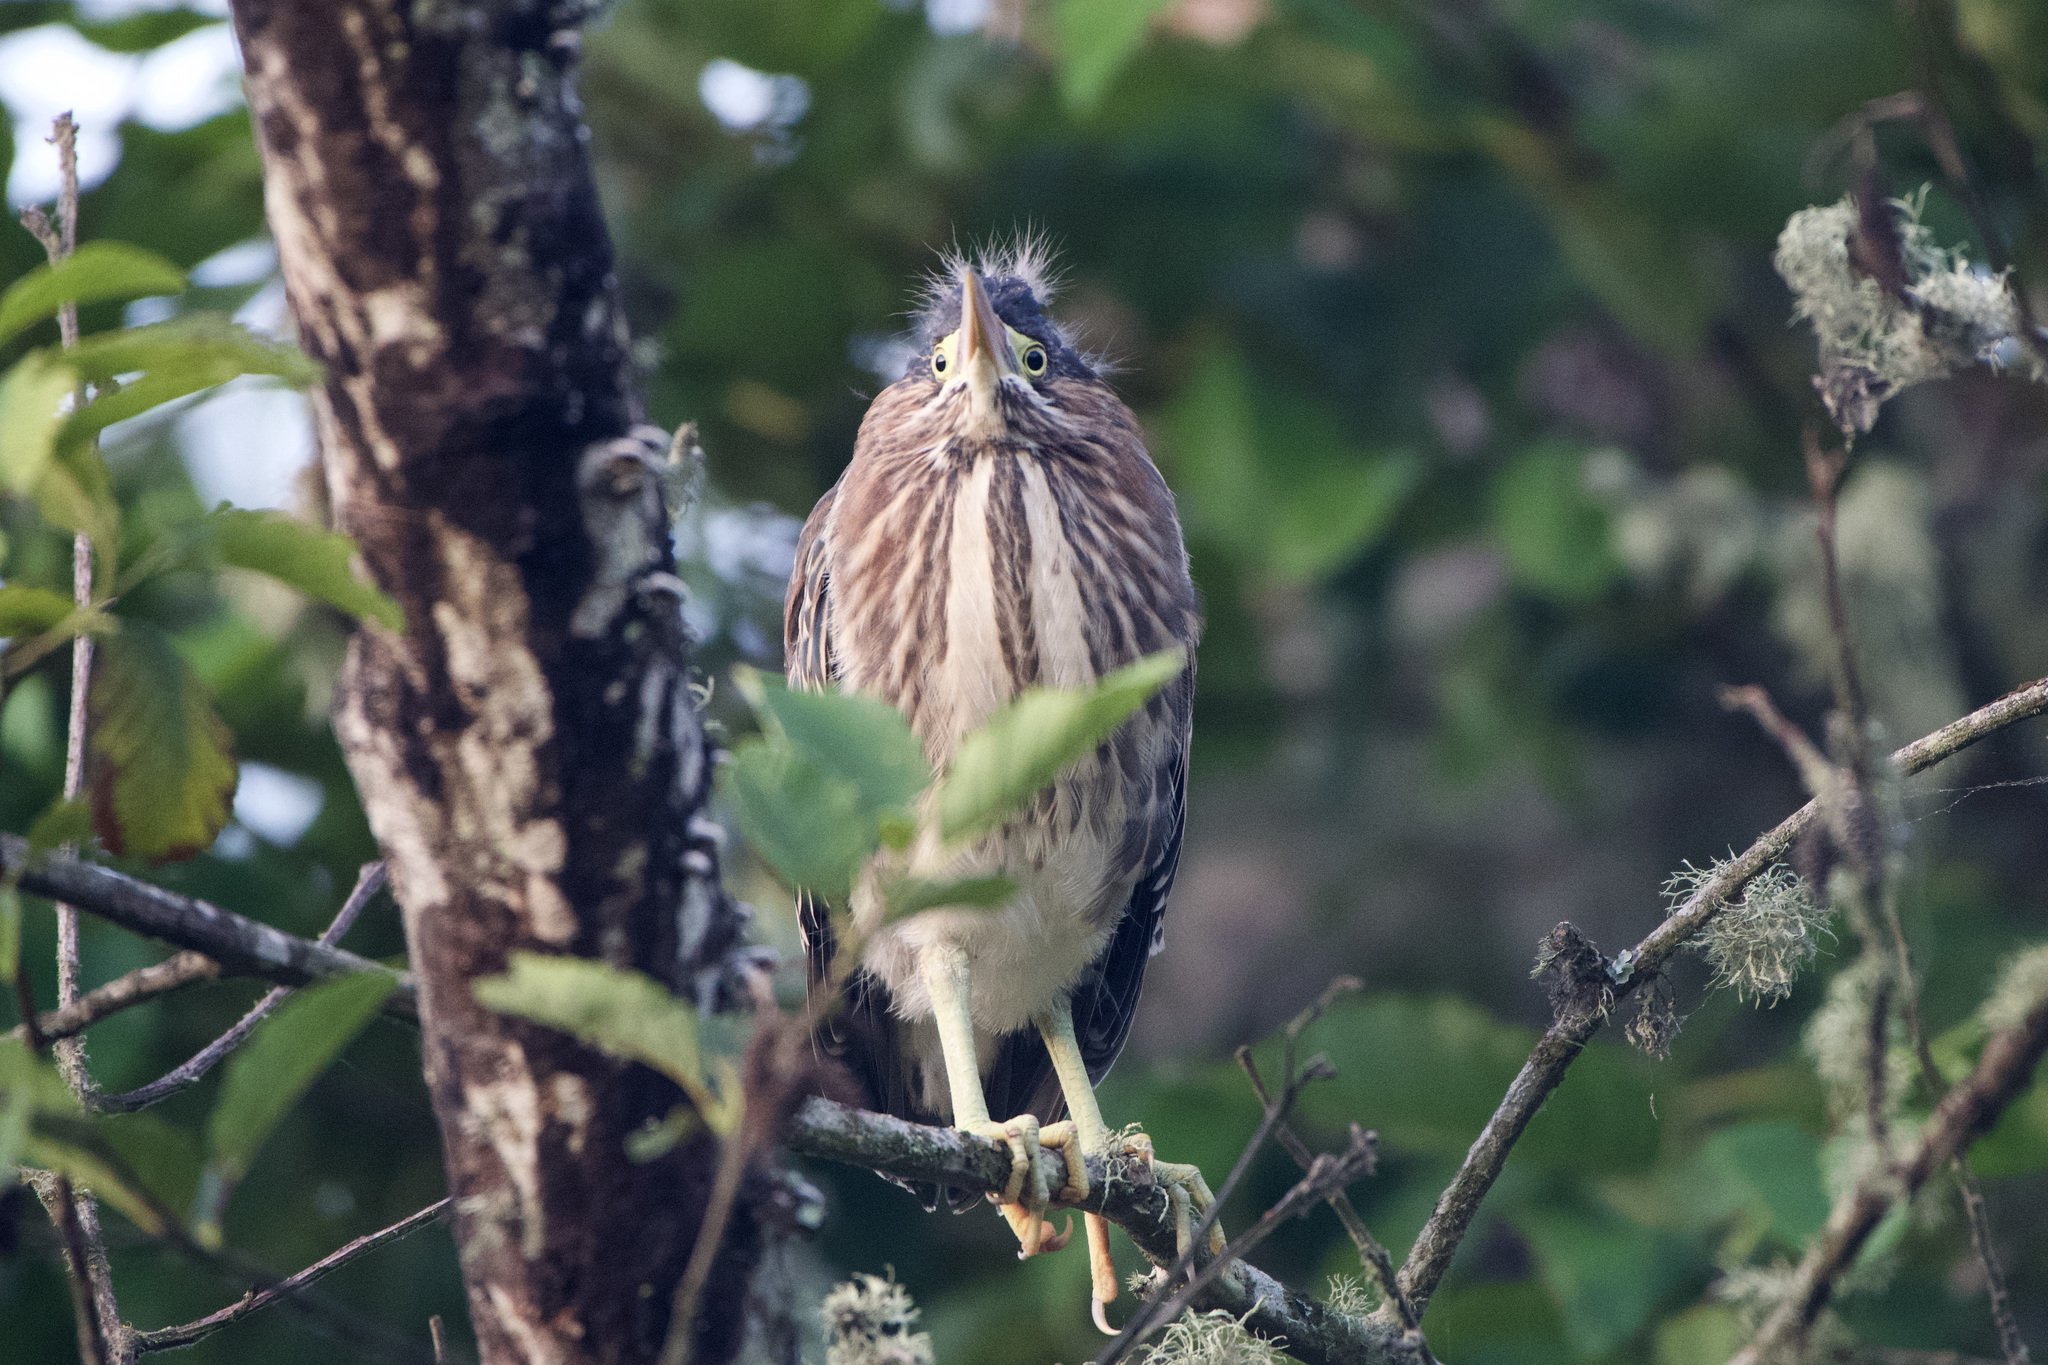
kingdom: Animalia
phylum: Chordata
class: Aves
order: Pelecaniformes
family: Ardeidae
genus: Butorides
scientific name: Butorides virescens
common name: Green heron
